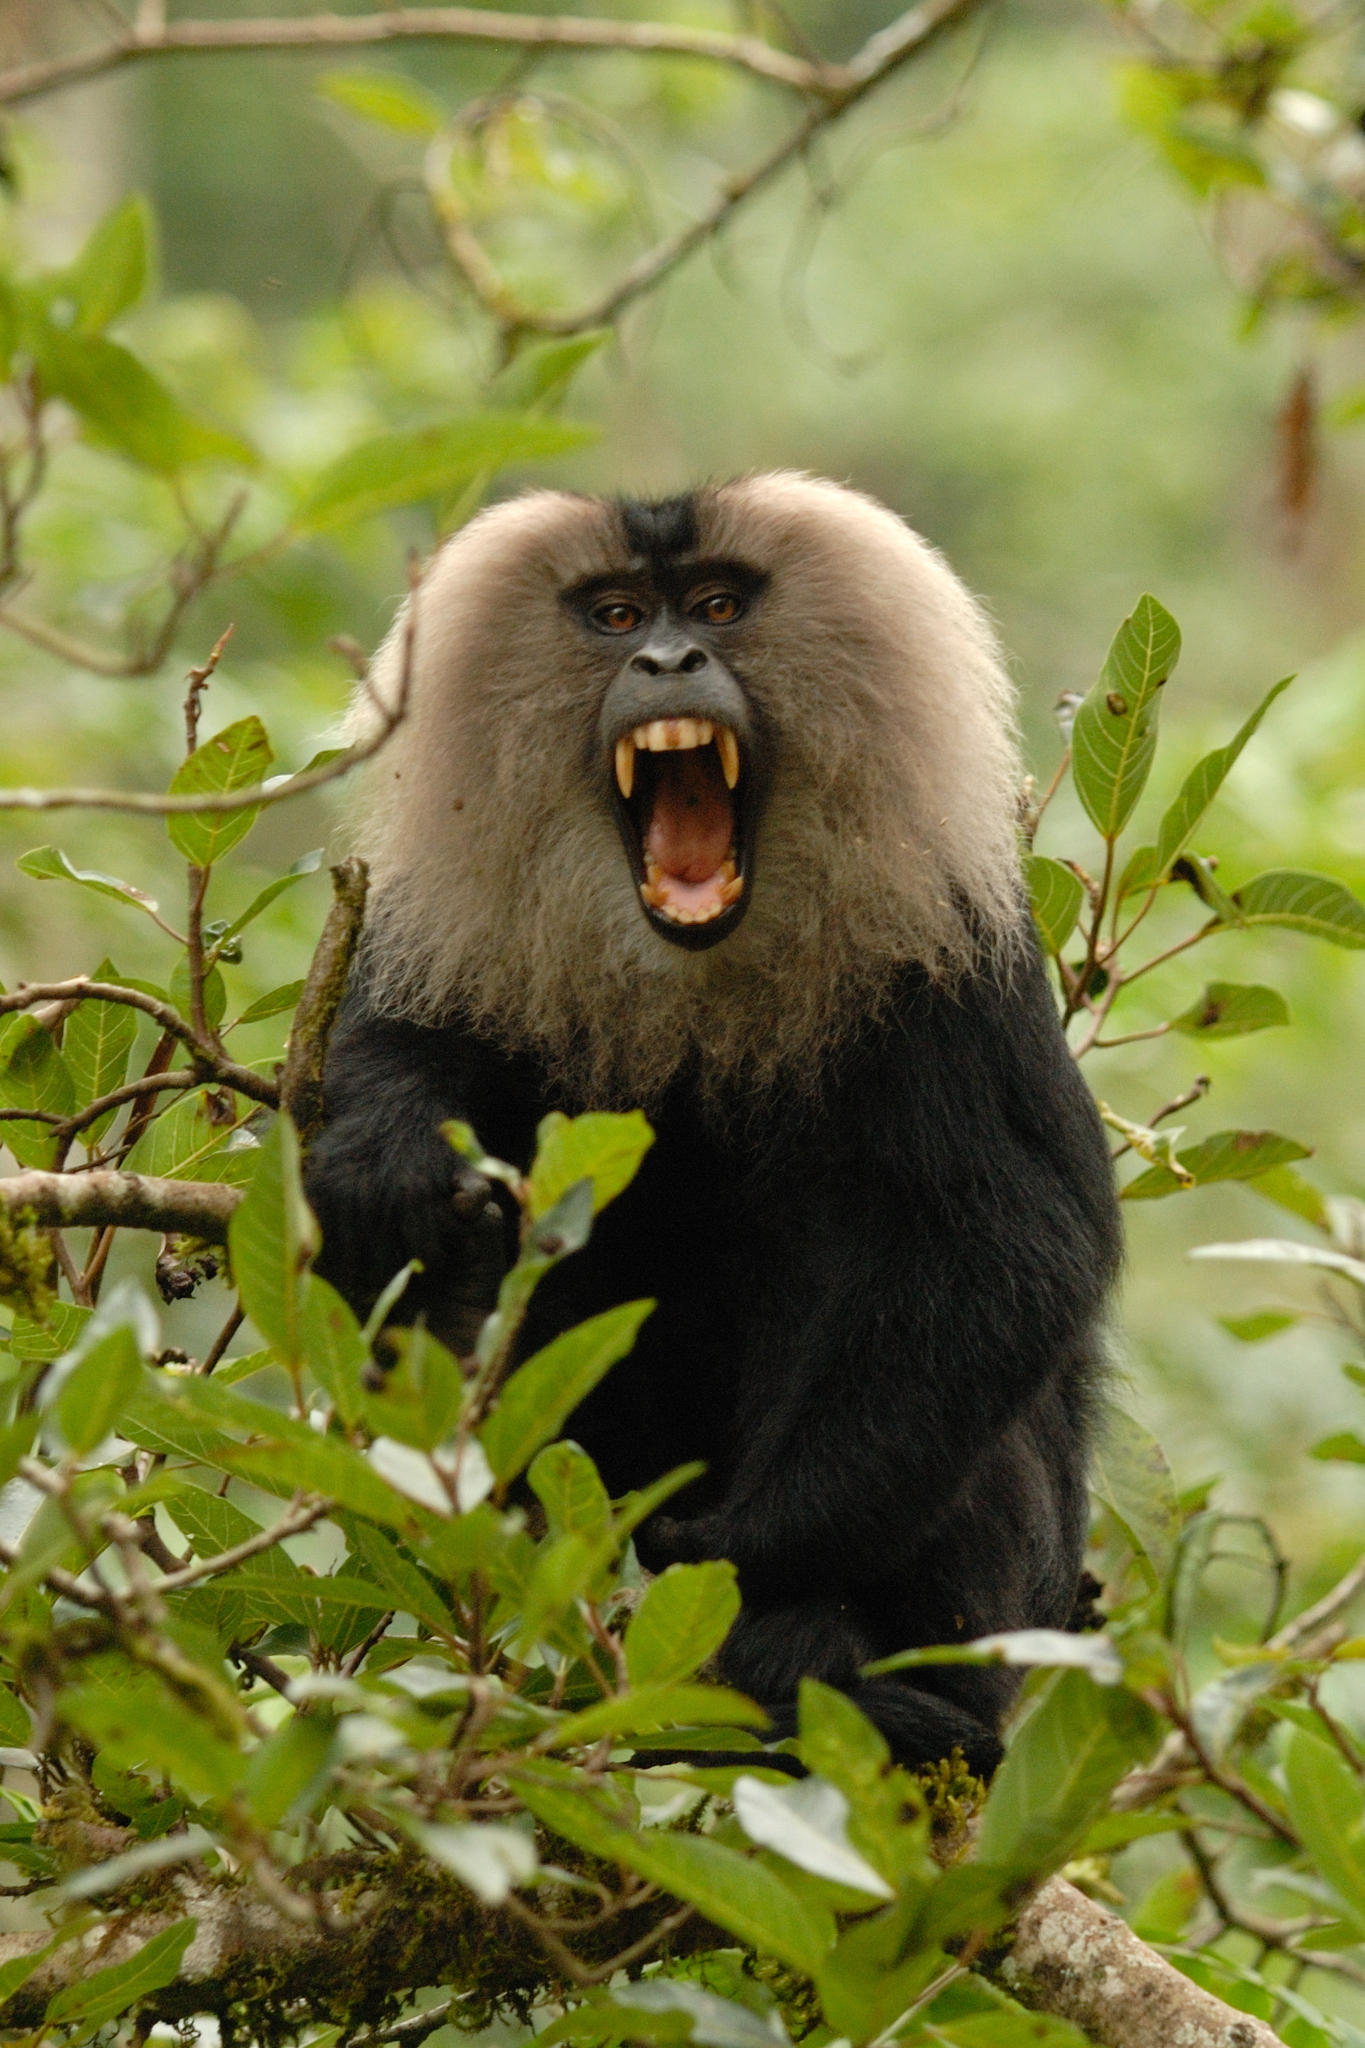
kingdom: Animalia
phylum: Chordata
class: Mammalia
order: Primates
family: Cercopithecidae
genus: Macaca
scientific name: Macaca silenus
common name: Lion-tailed macaque
